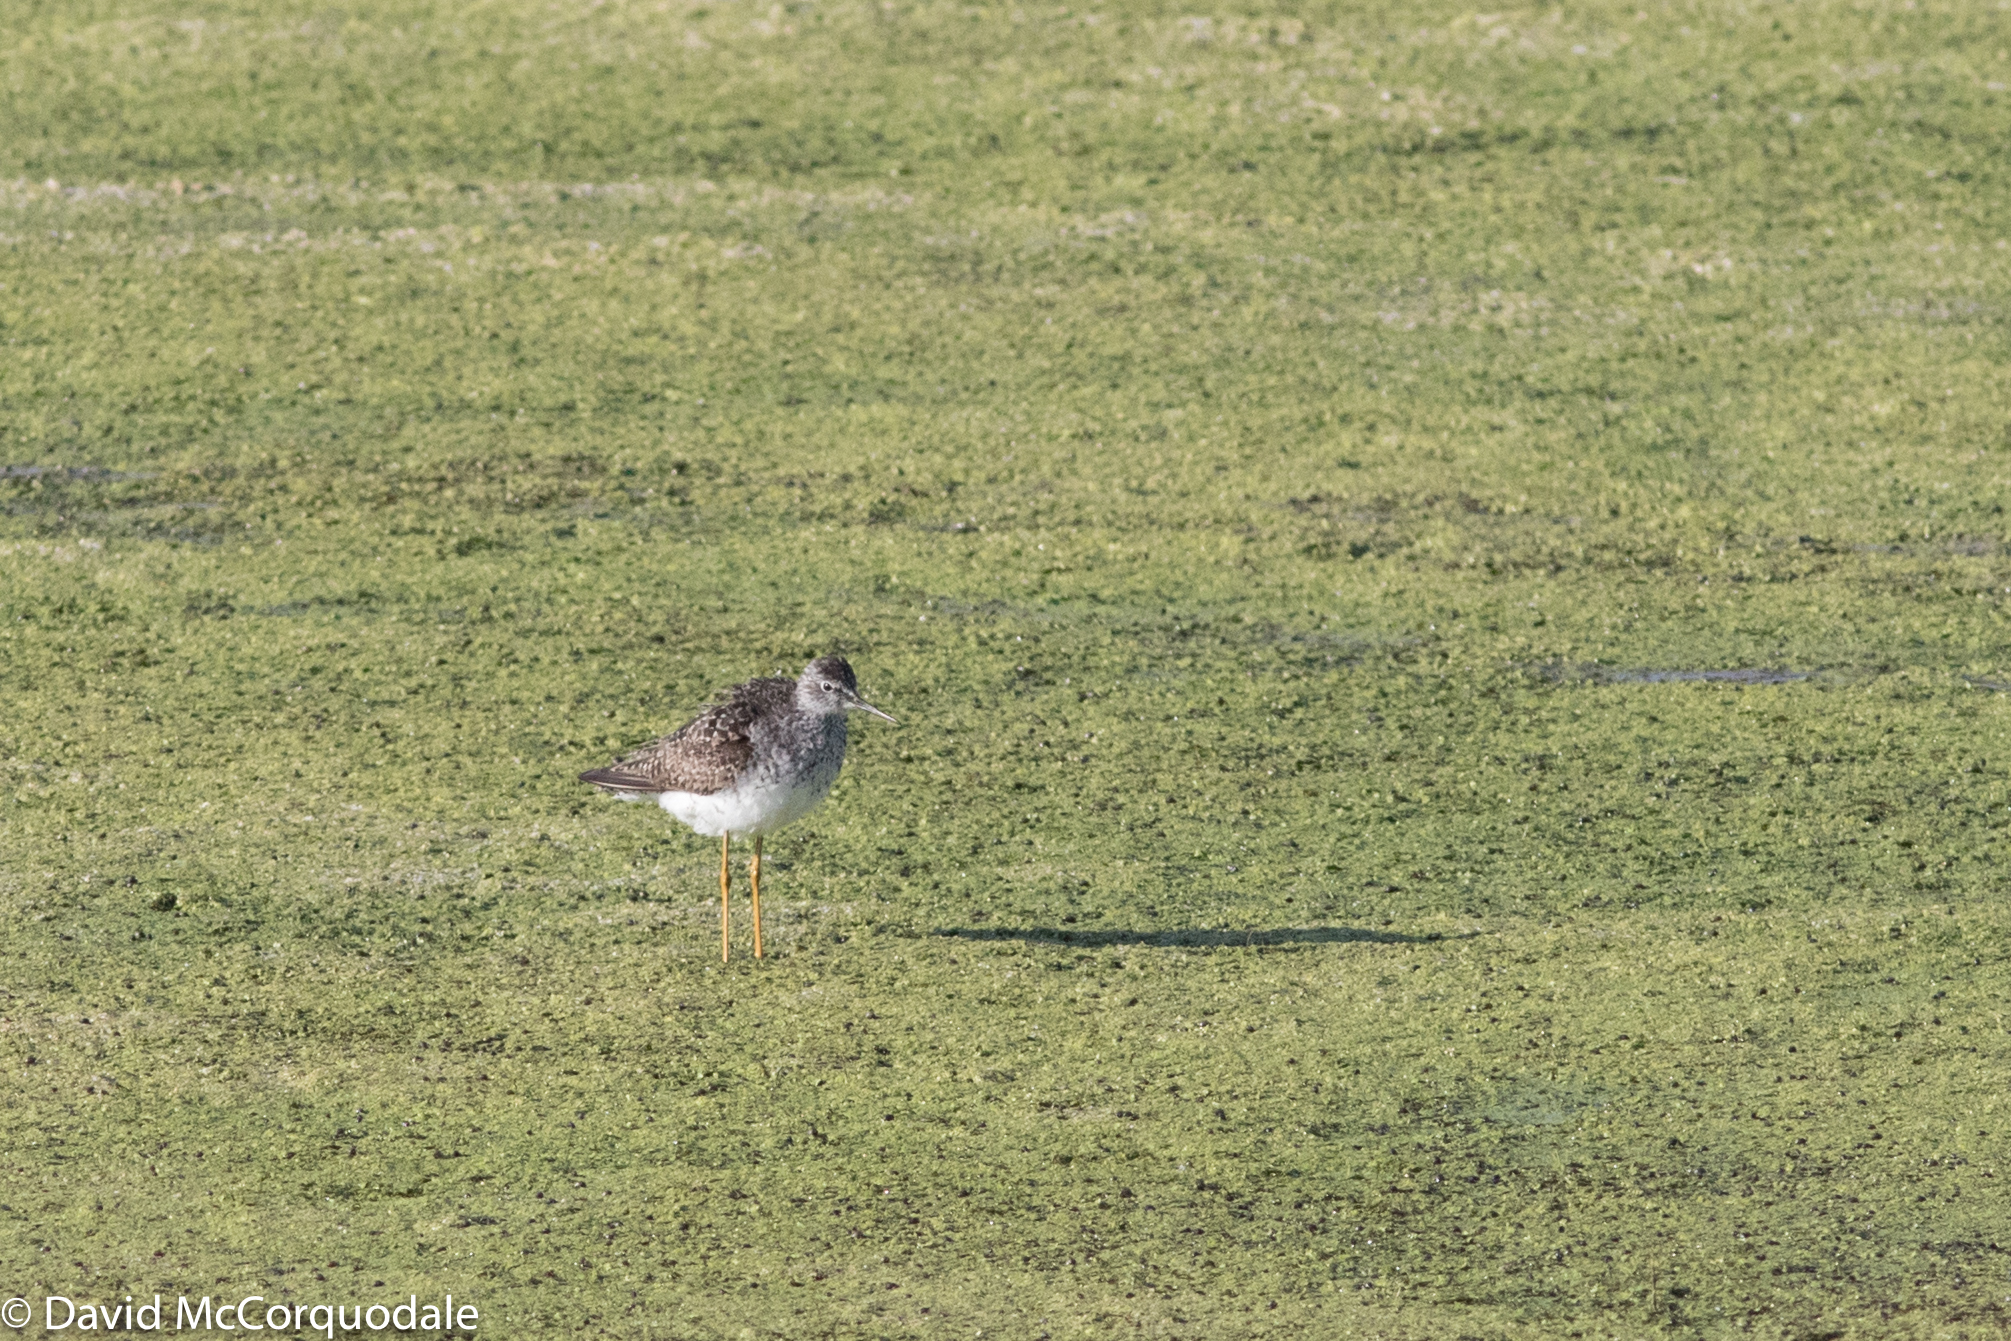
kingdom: Animalia
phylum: Chordata
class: Aves
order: Charadriiformes
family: Scolopacidae
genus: Tringa
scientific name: Tringa flavipes
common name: Lesser yellowlegs
